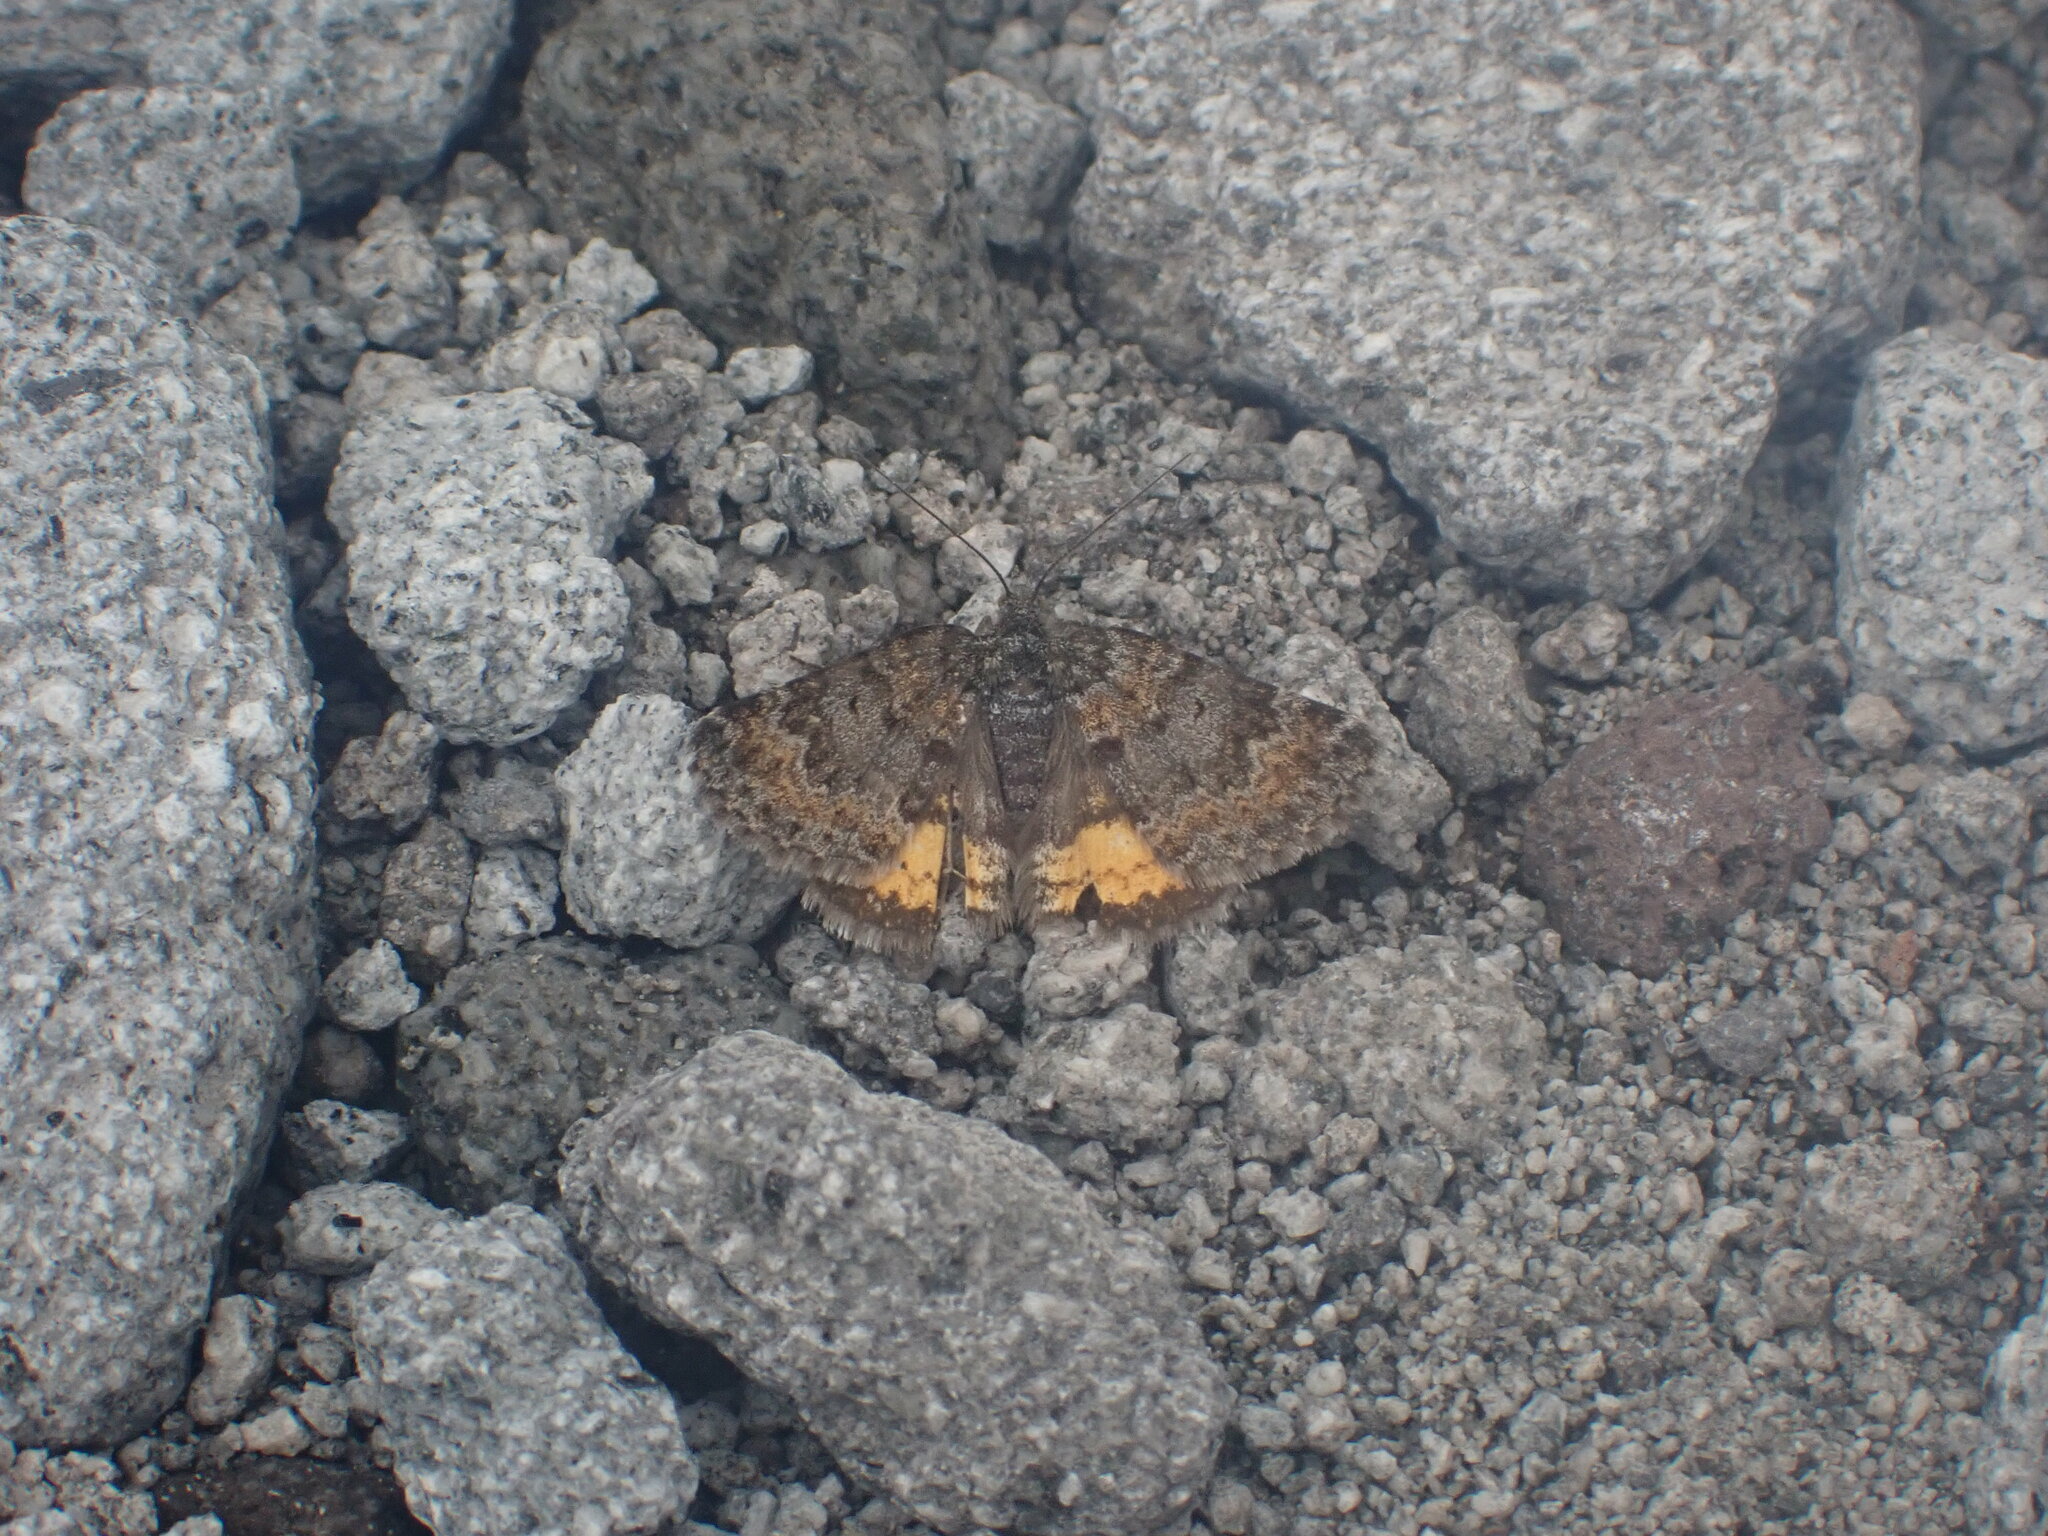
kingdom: Animalia
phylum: Arthropoda
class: Insecta
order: Lepidoptera
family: Geometridae
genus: Paranotoreas
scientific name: Paranotoreas brephosata
